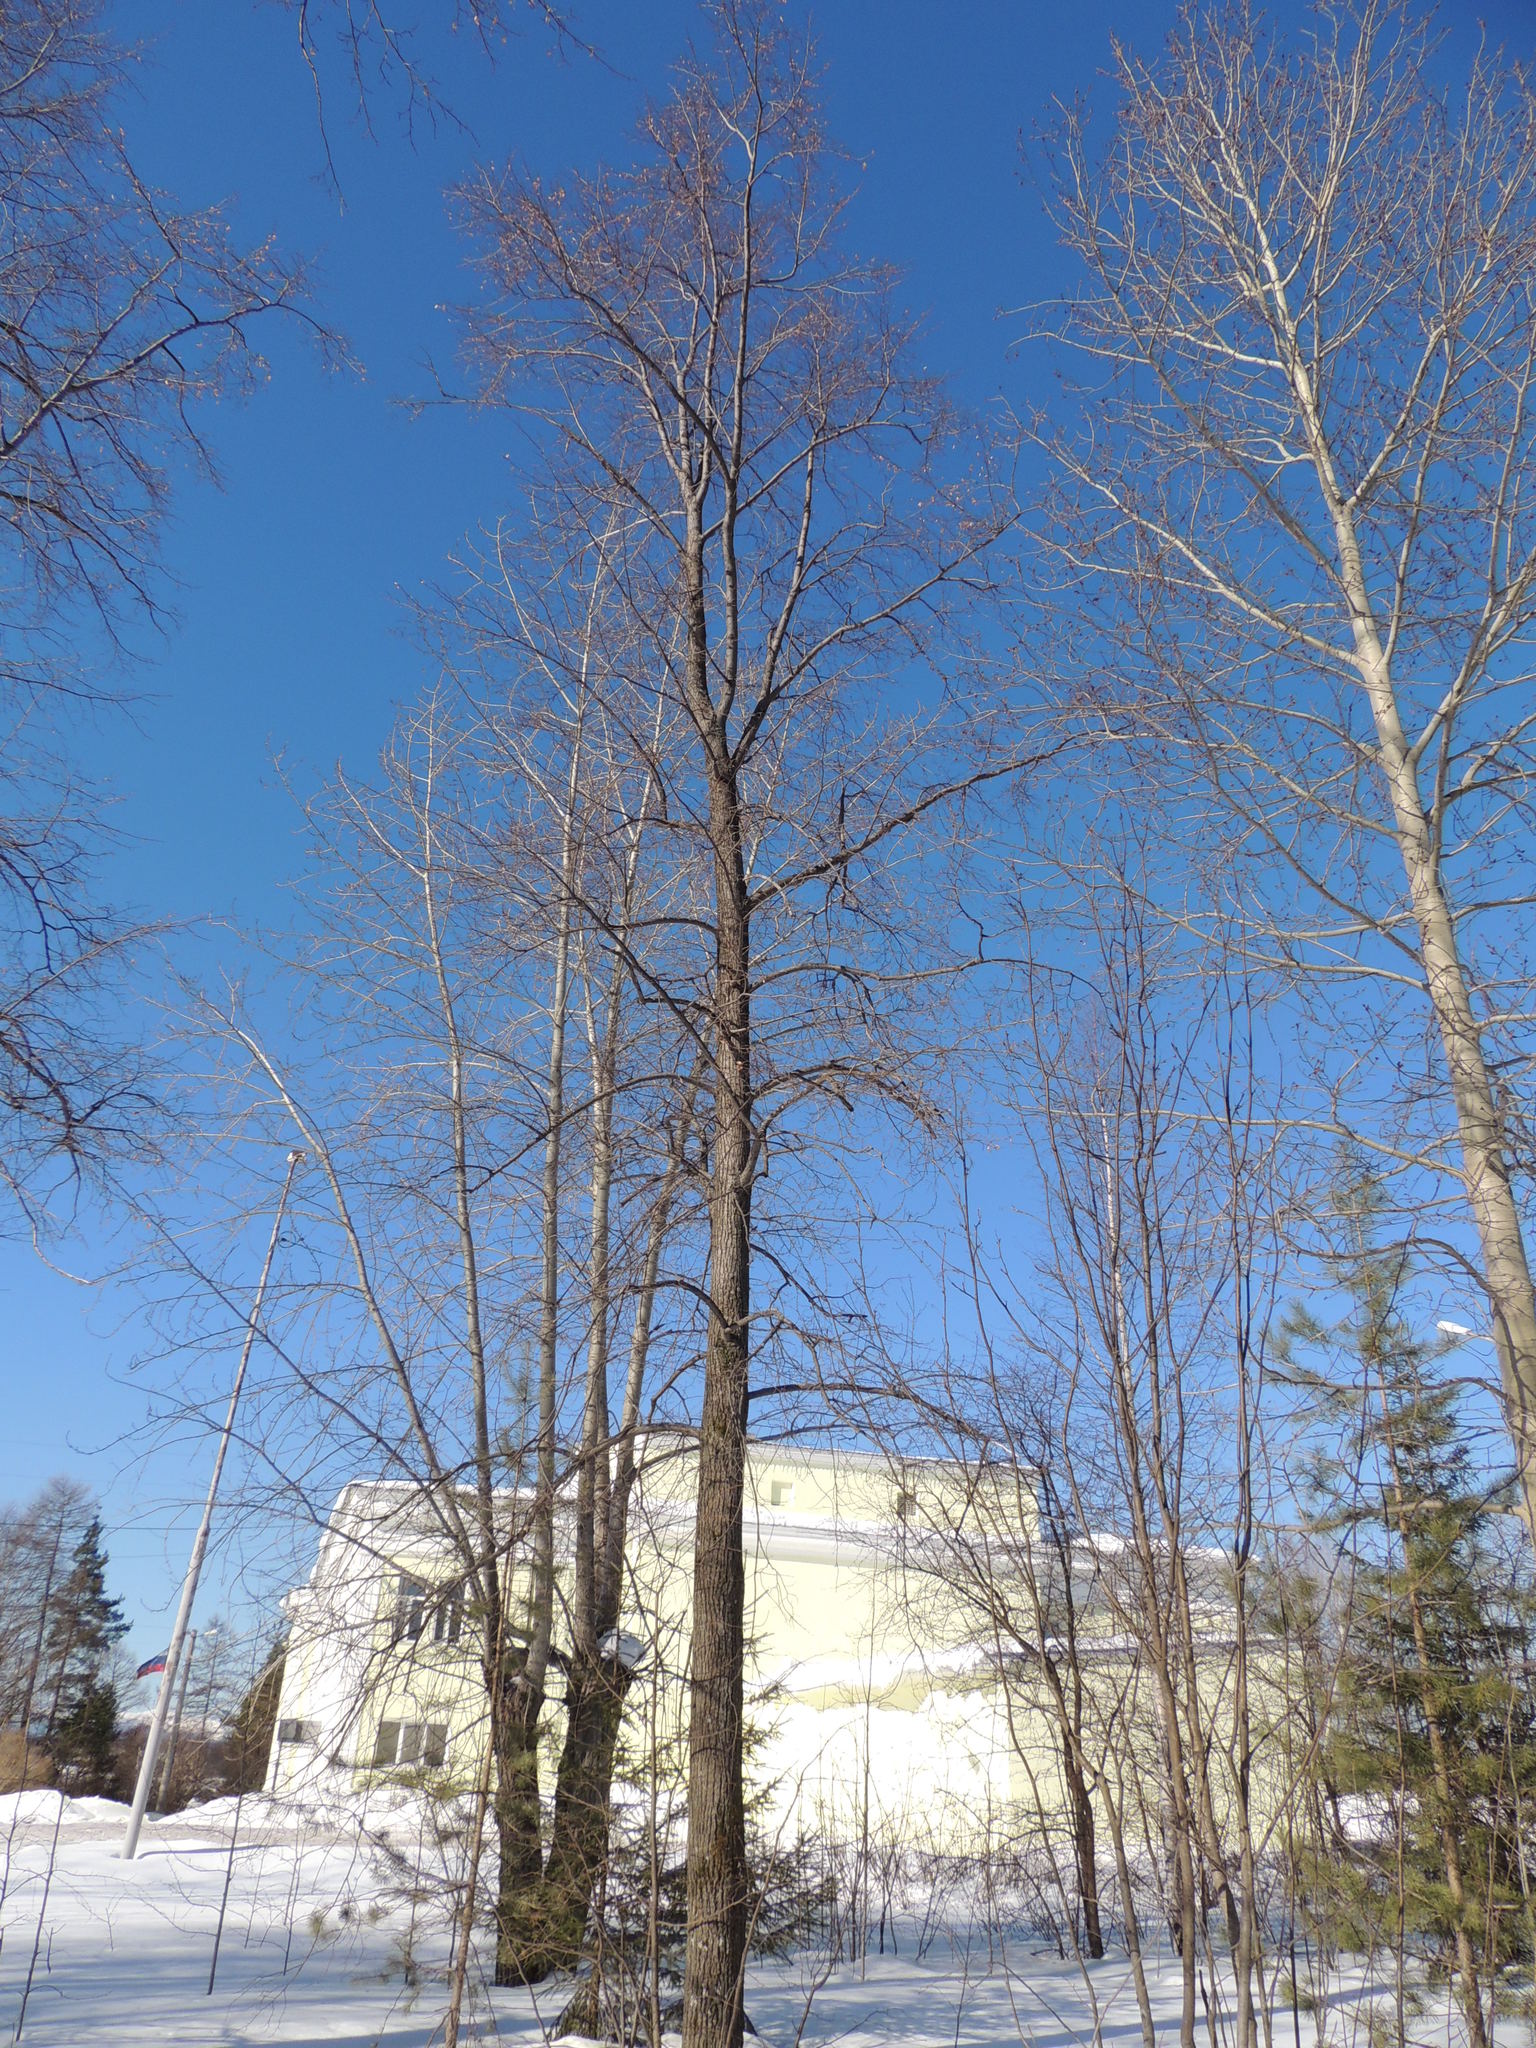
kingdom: Plantae
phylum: Tracheophyta
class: Magnoliopsida
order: Malvales
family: Malvaceae
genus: Tilia
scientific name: Tilia cordata
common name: Small-leaved lime
